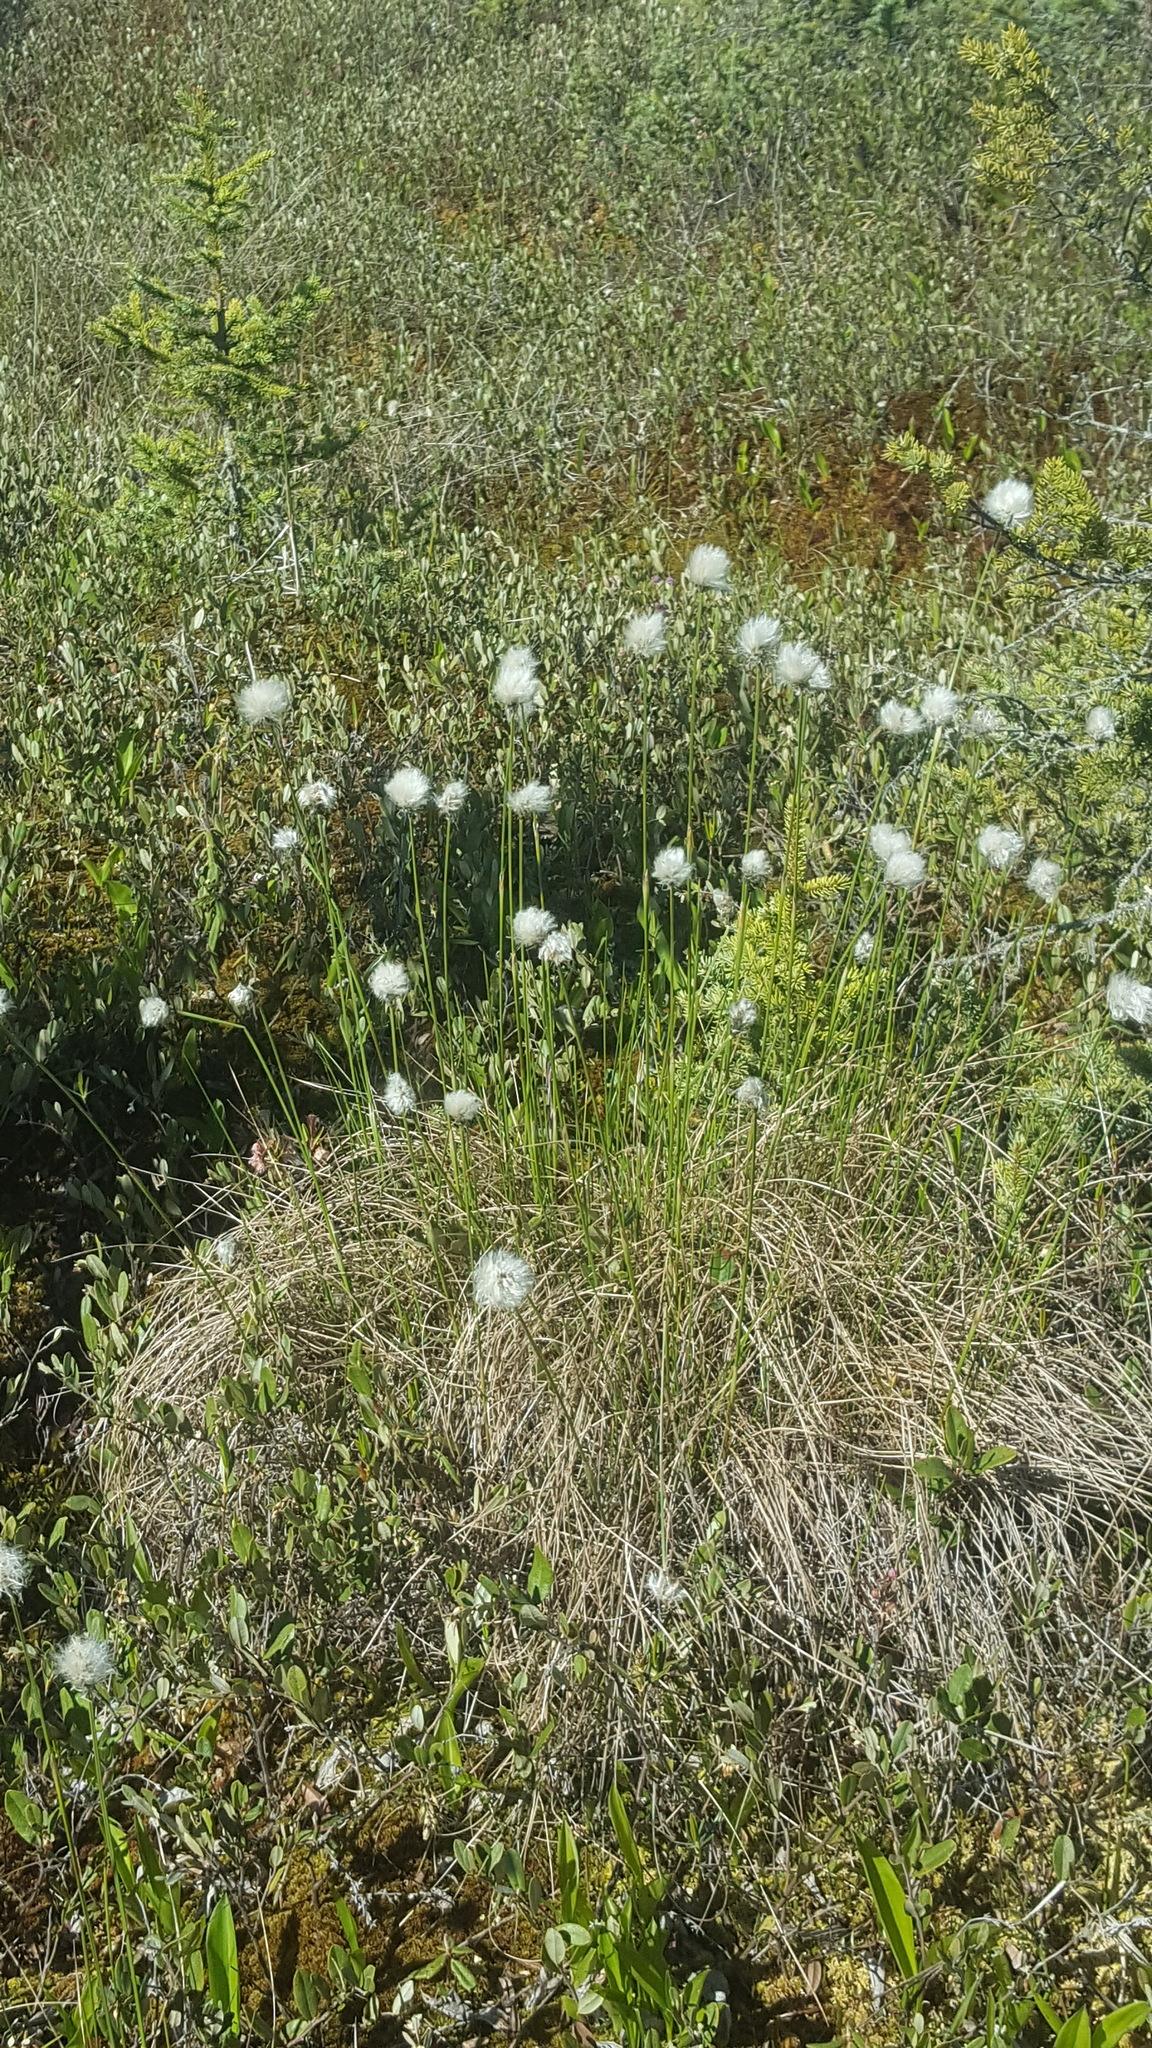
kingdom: Plantae
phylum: Tracheophyta
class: Liliopsida
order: Poales
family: Cyperaceae
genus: Eriophorum
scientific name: Eriophorum vaginatum
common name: Hare's-tail cottongrass
